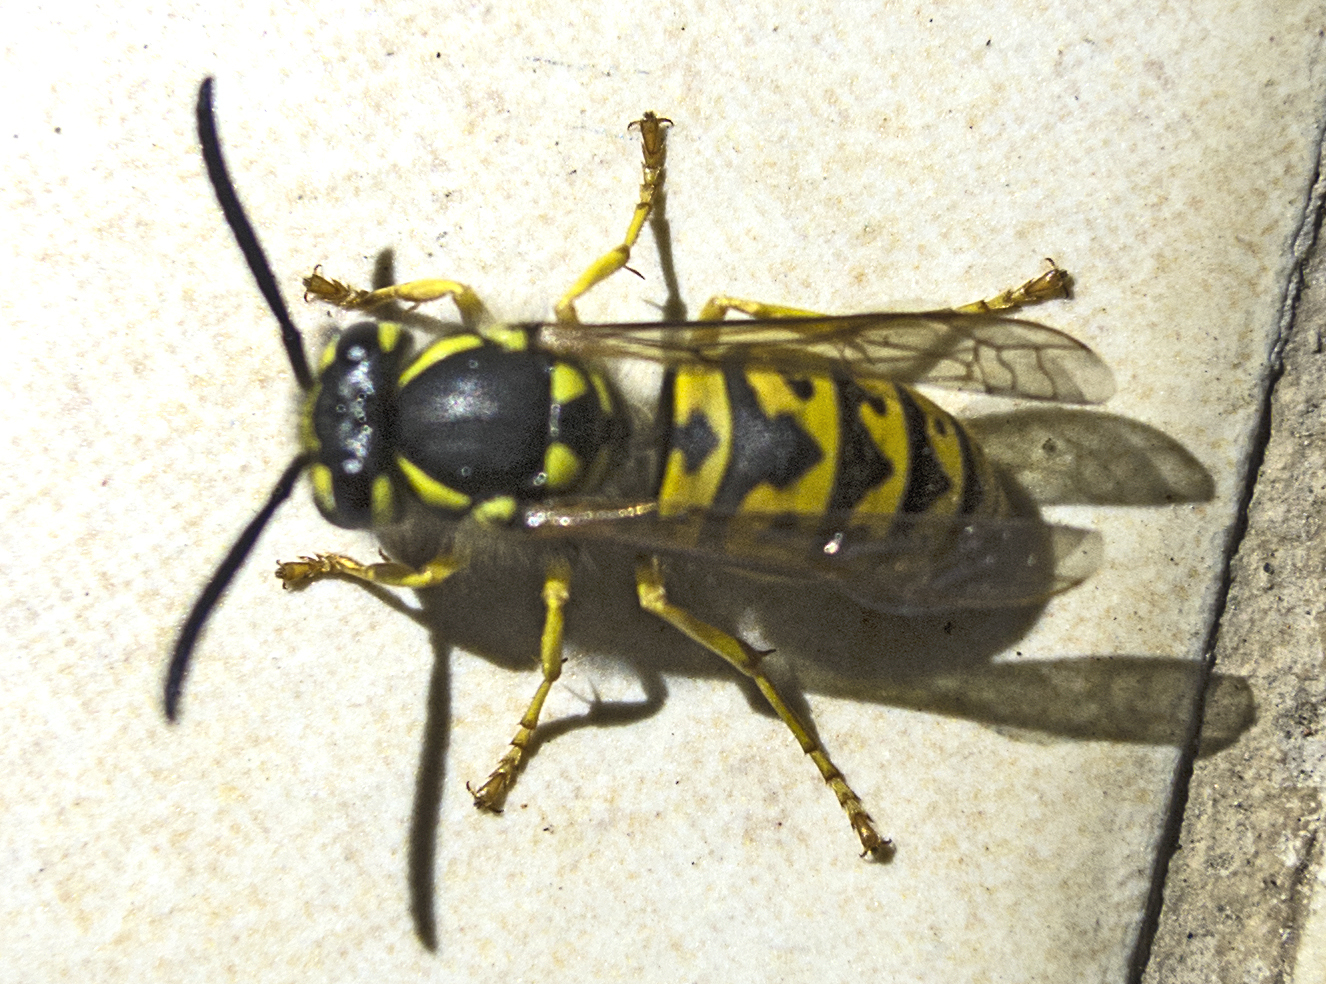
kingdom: Animalia
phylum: Arthropoda
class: Insecta
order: Hymenoptera
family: Vespidae
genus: Vespula
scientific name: Vespula germanica
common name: German wasp
